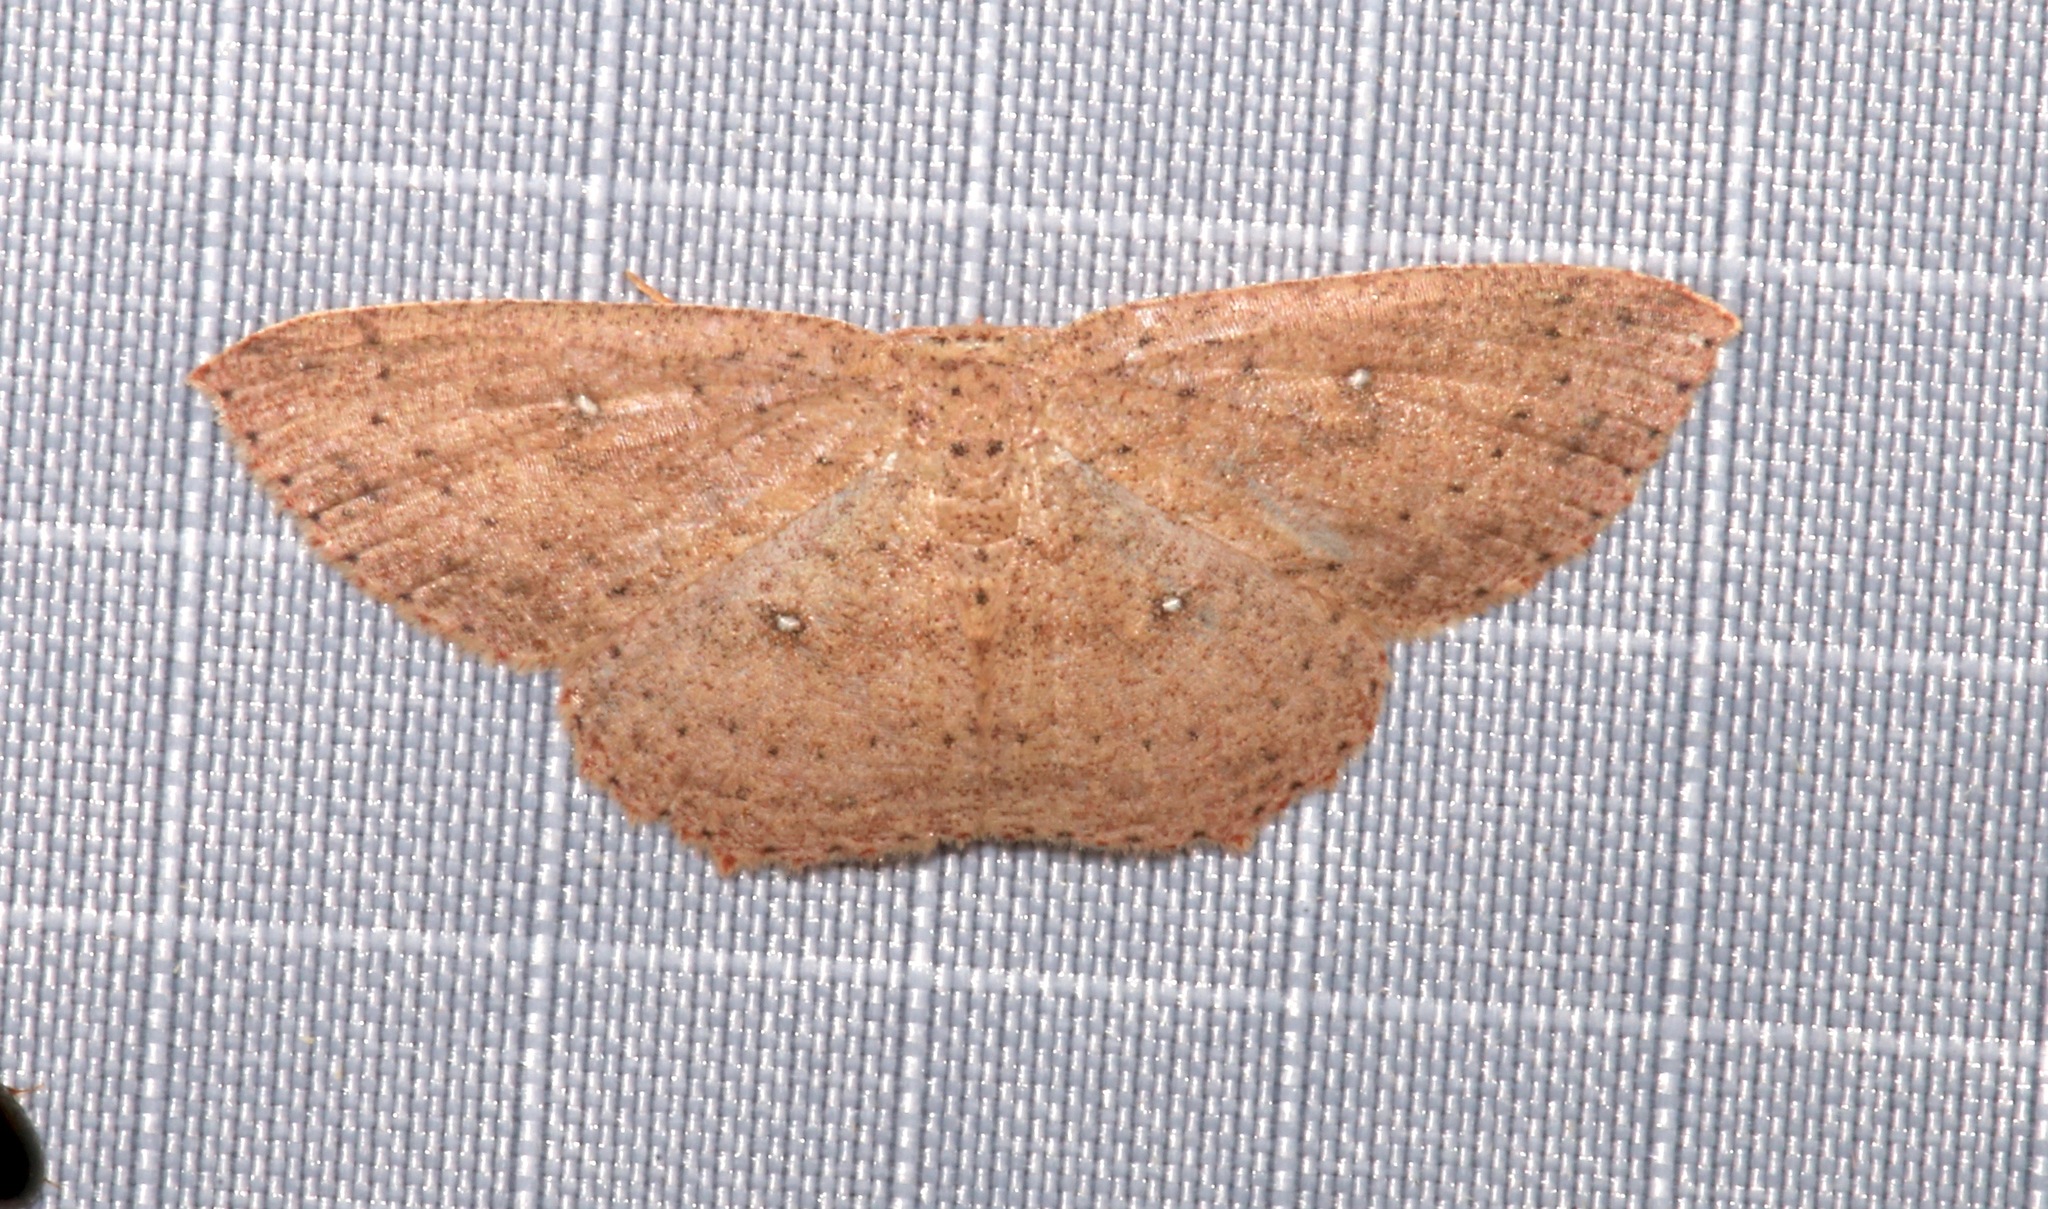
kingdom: Animalia
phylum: Arthropoda
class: Insecta
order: Lepidoptera
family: Geometridae
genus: Cyclophora
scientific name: Cyclophora myrtaria
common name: Waxmyrtle wave moth
